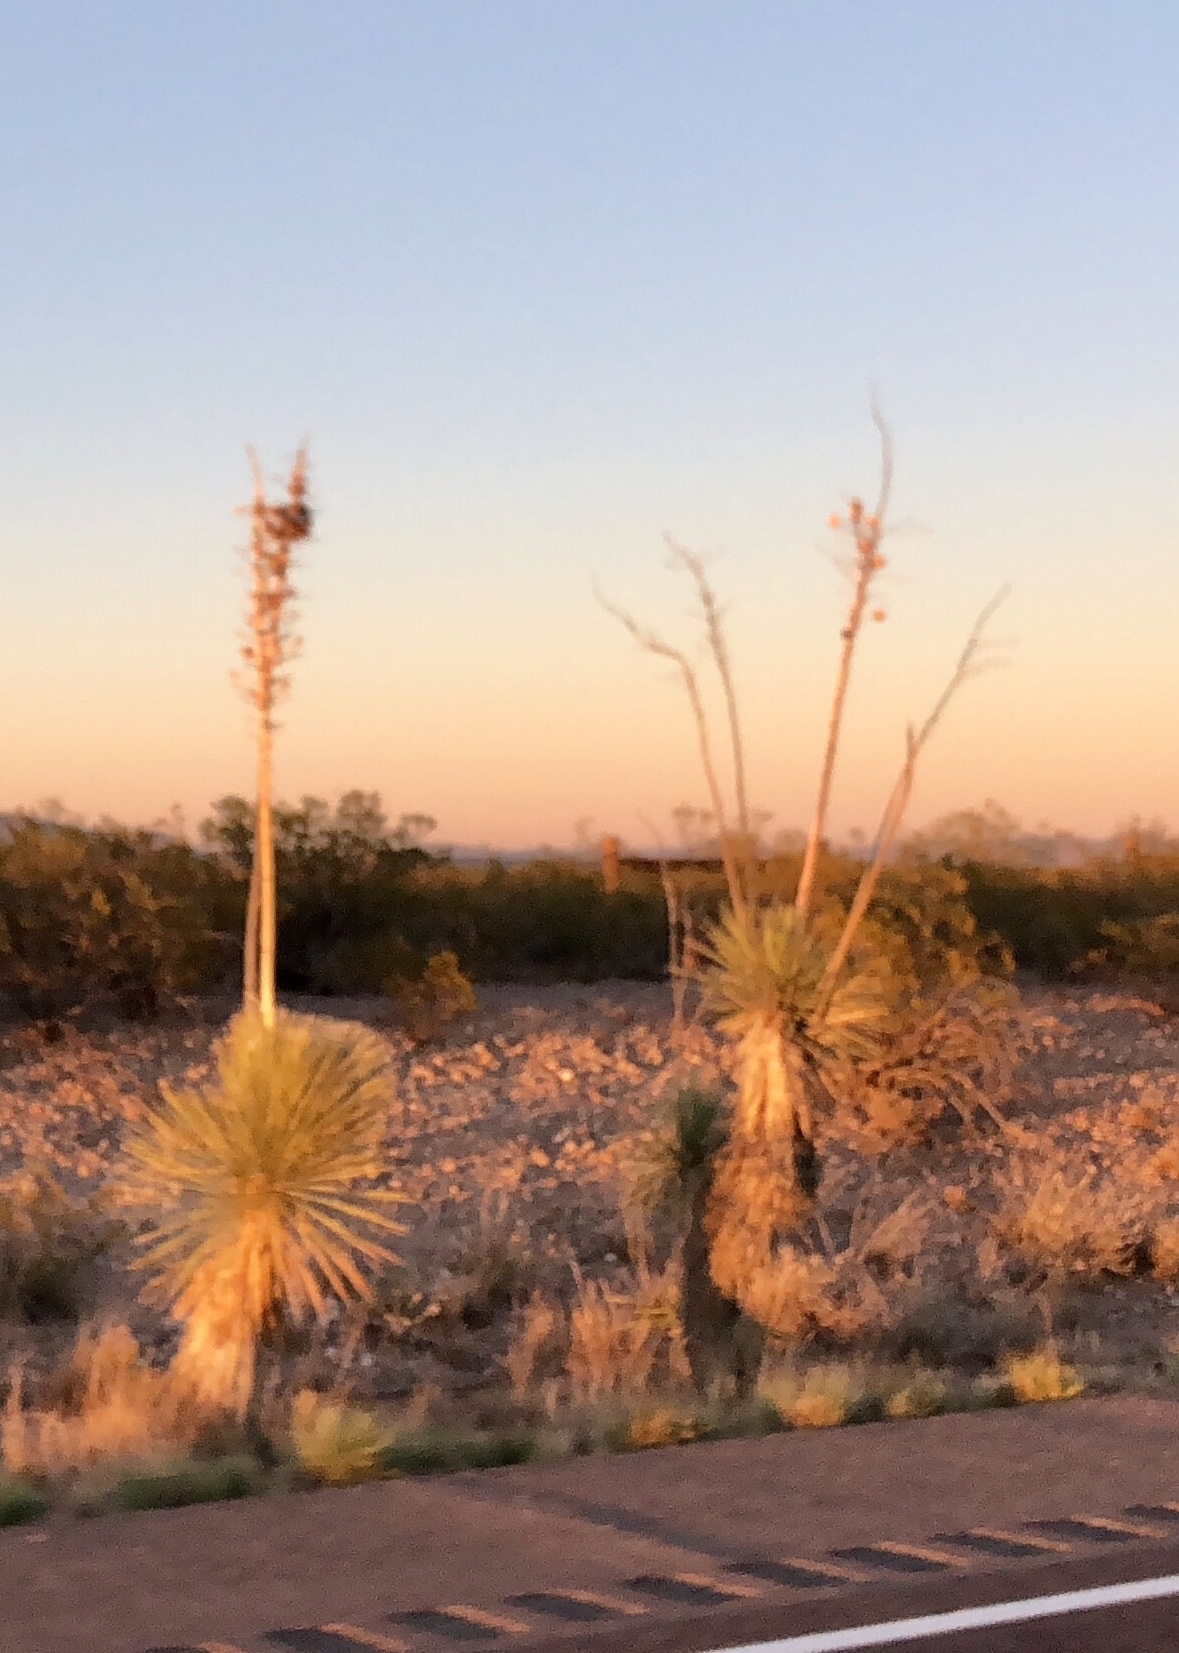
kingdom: Plantae
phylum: Tracheophyta
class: Liliopsida
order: Asparagales
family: Asparagaceae
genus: Yucca
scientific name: Yucca elata
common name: Palmella
